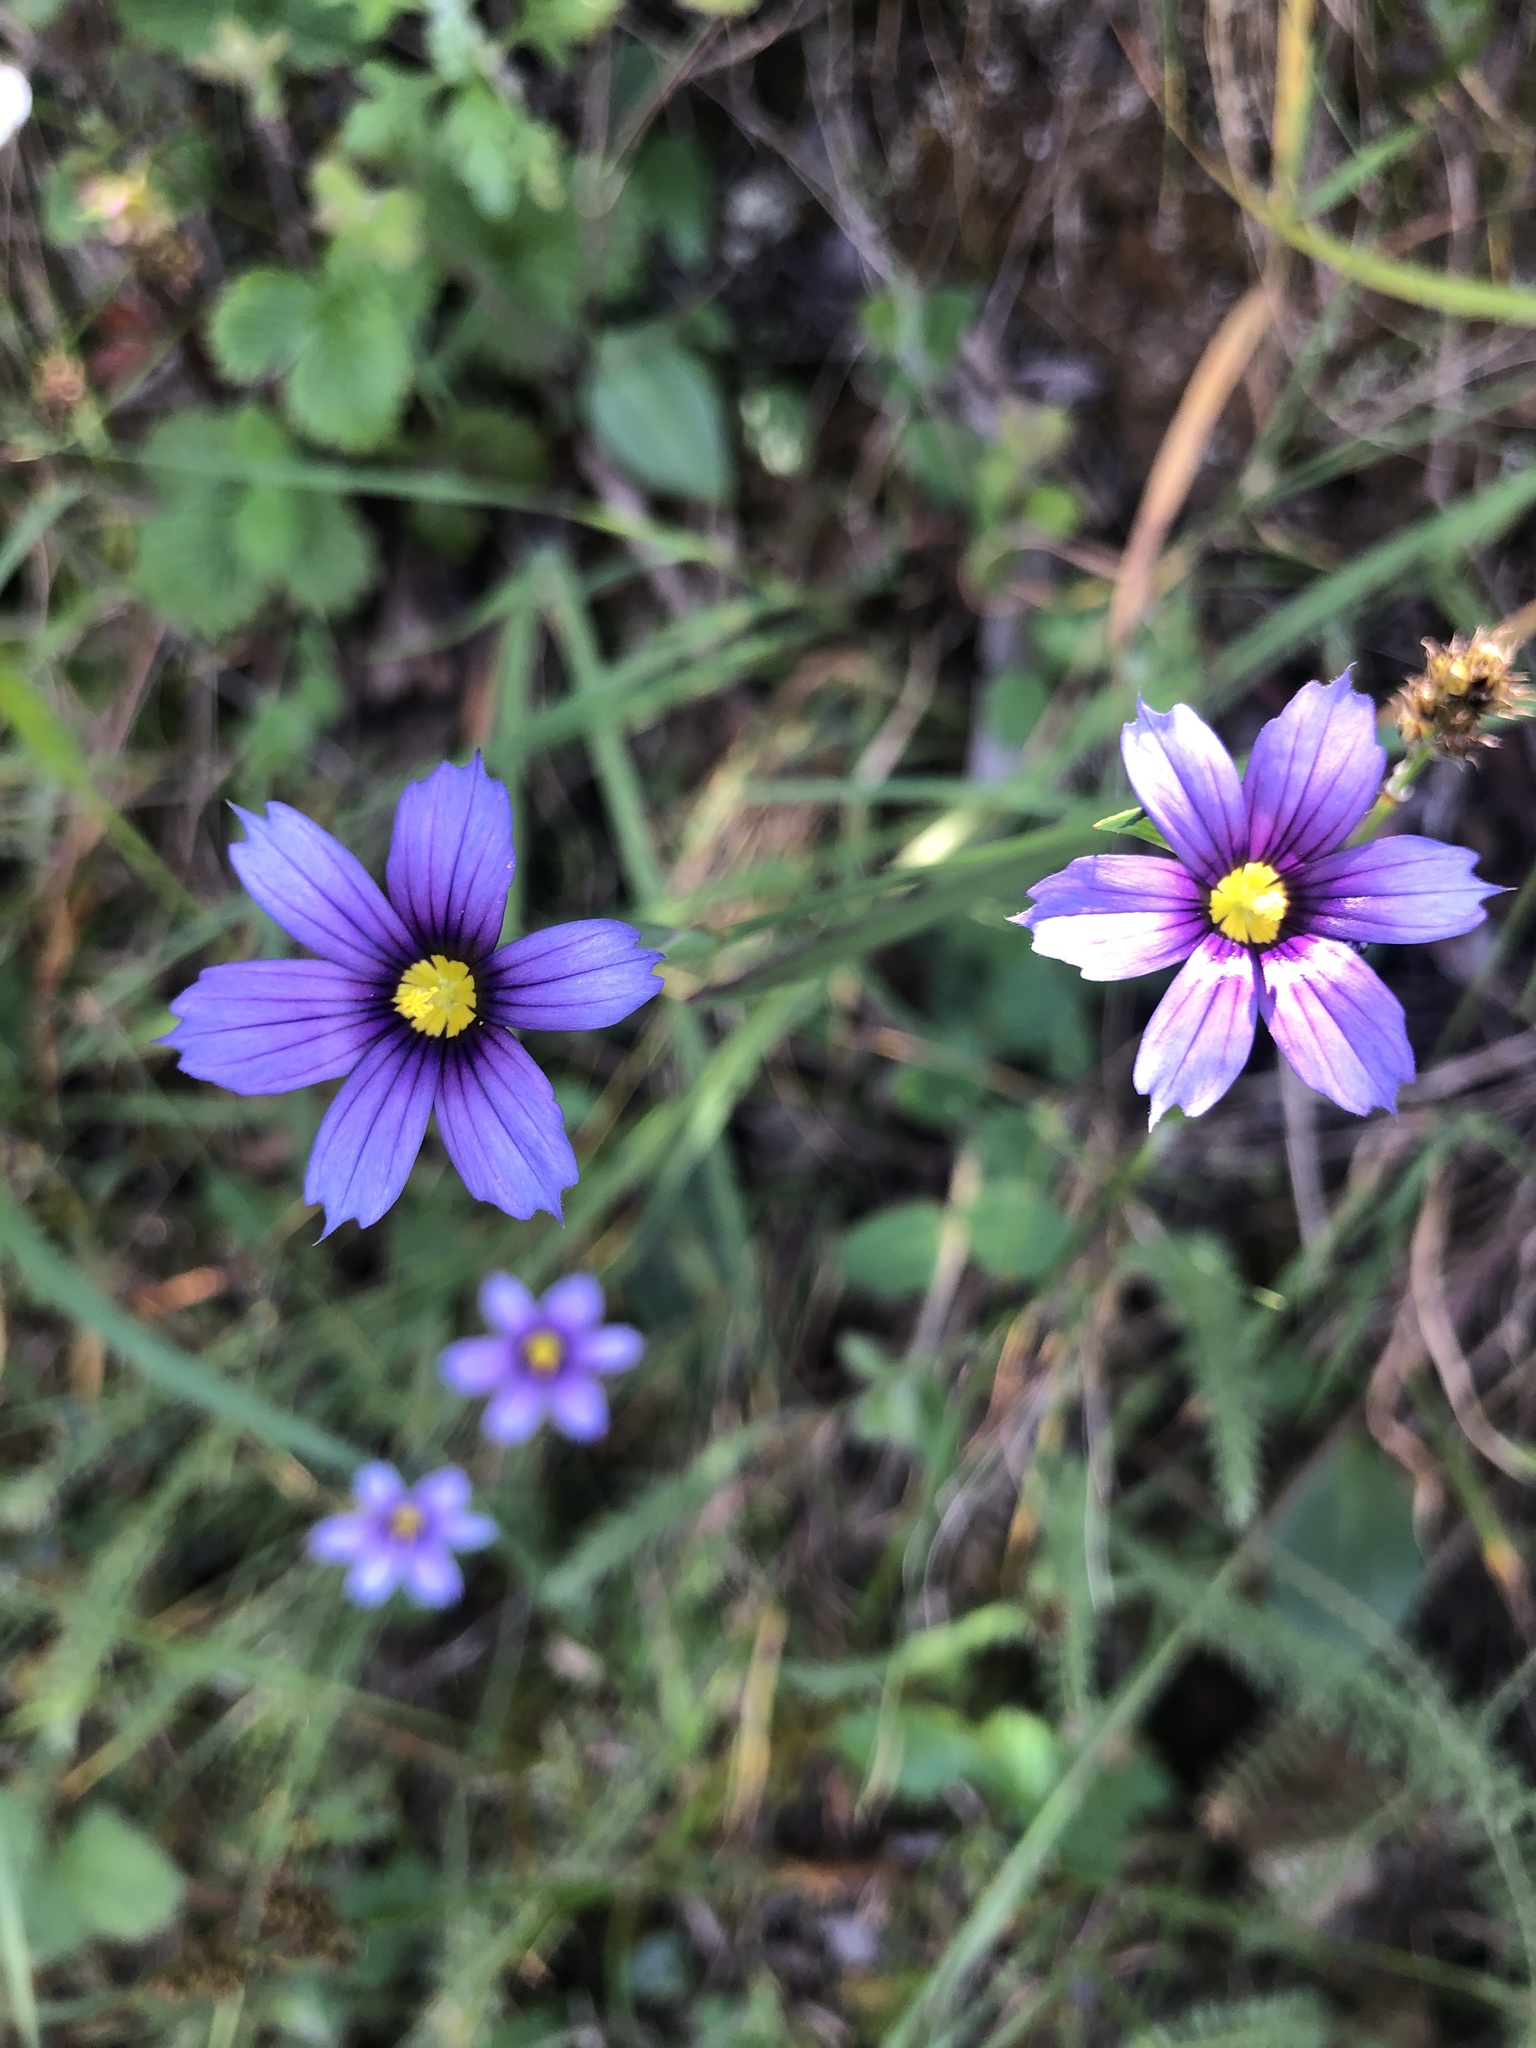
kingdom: Plantae
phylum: Tracheophyta
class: Liliopsida
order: Asparagales
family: Iridaceae
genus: Sisyrinchium
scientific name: Sisyrinchium bellum
